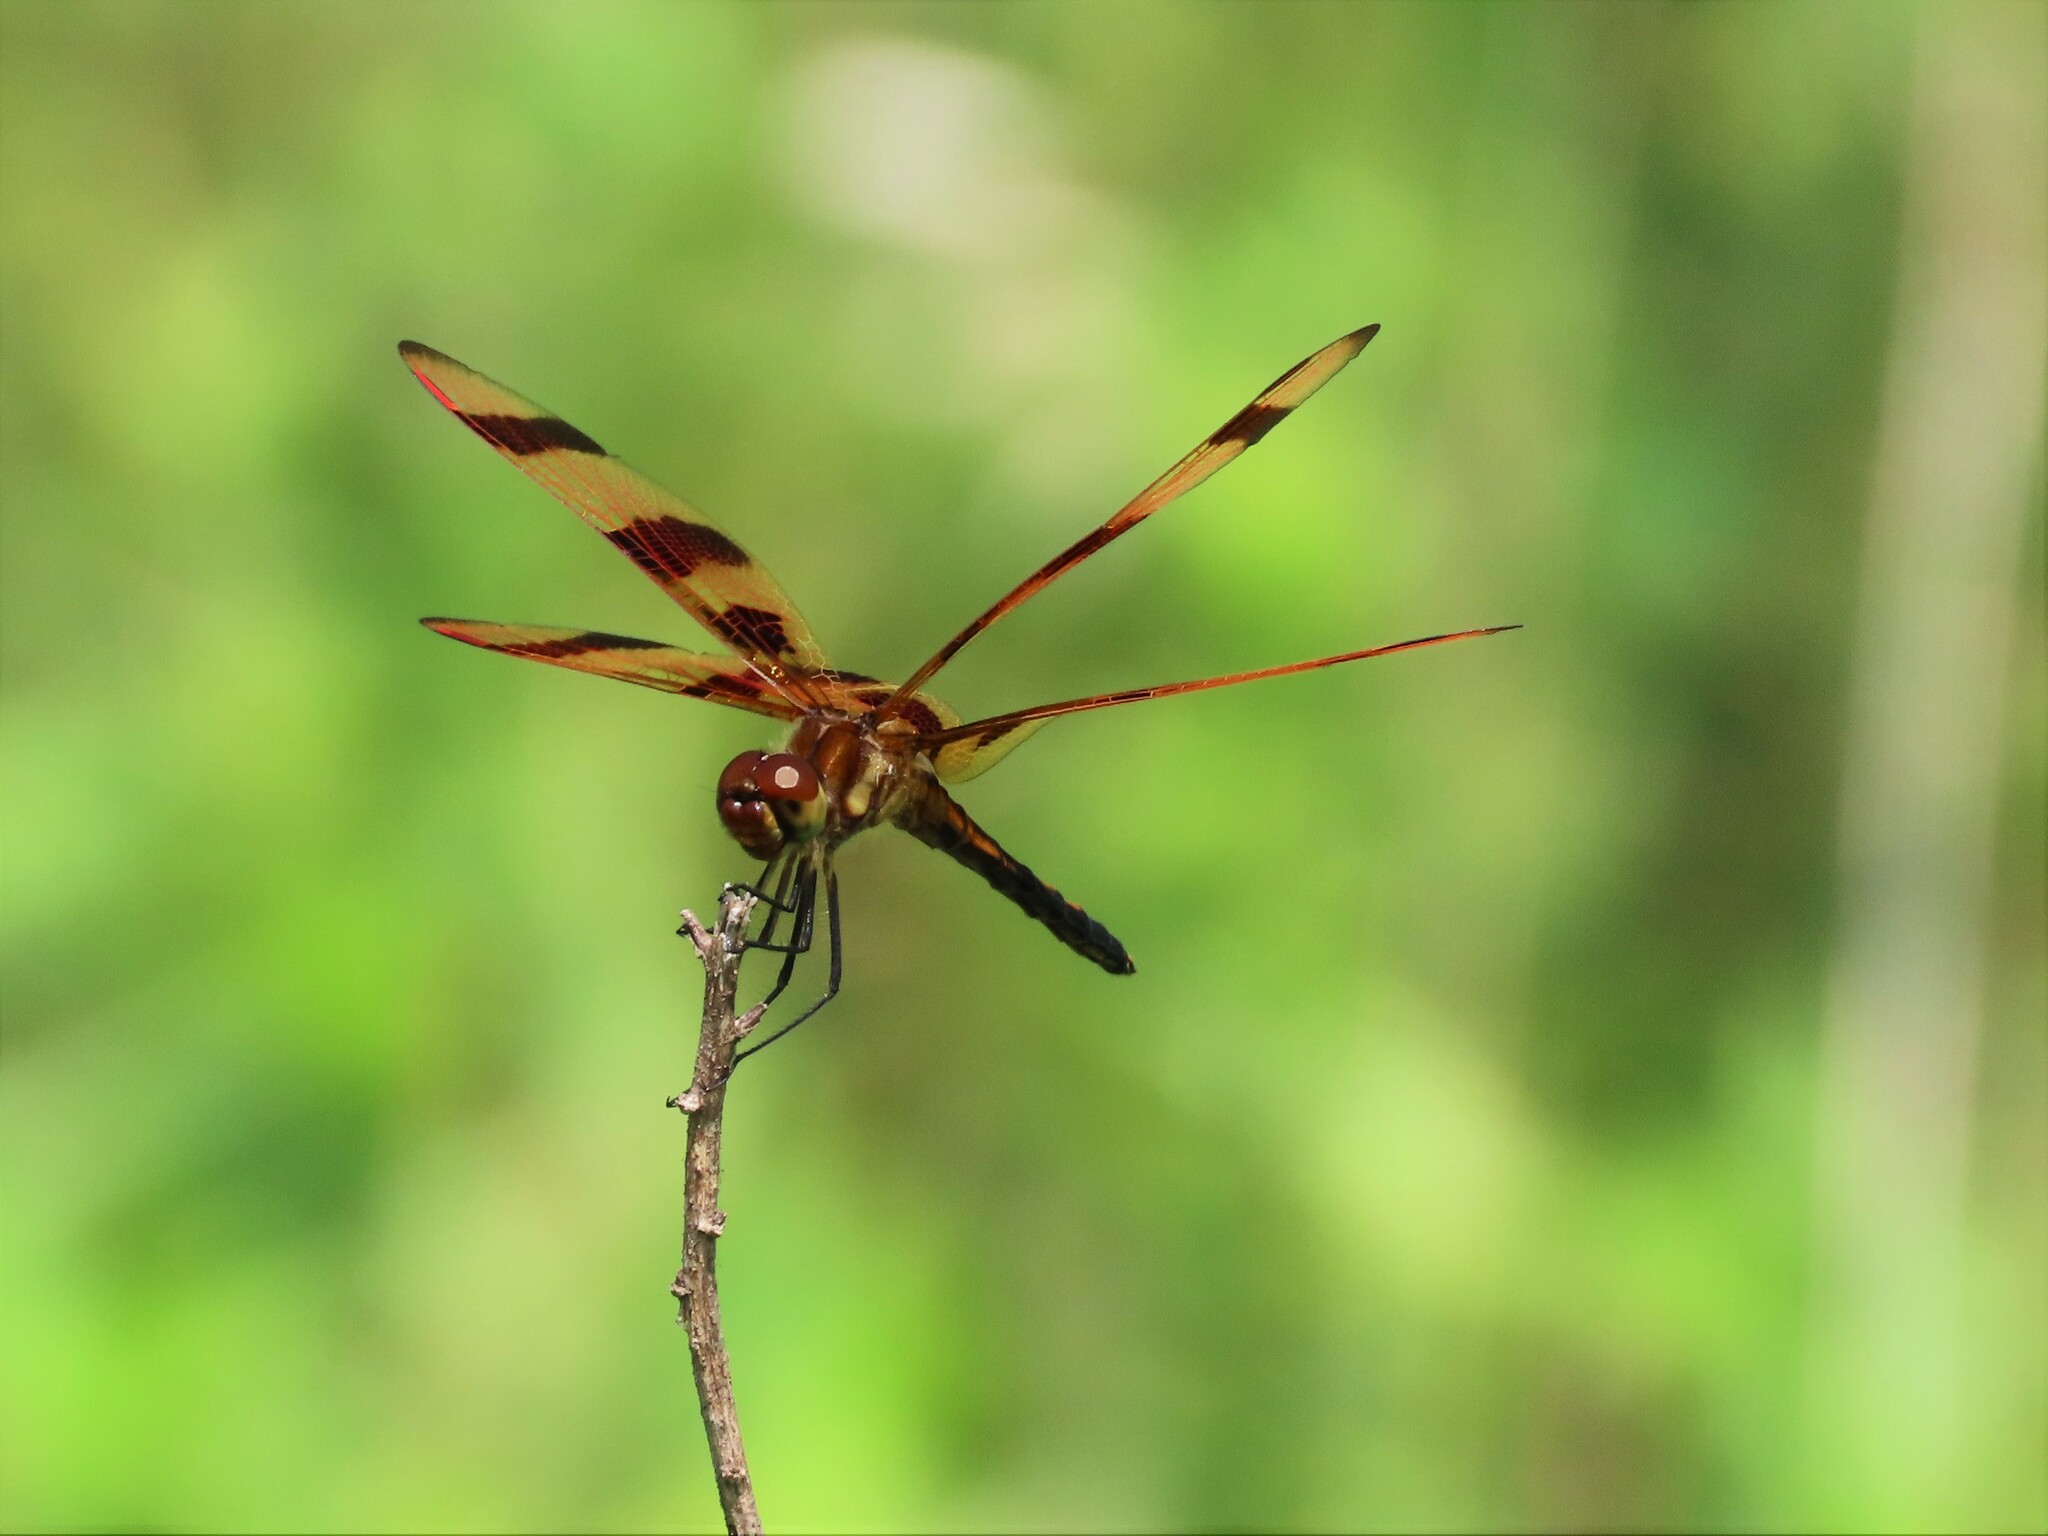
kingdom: Animalia
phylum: Arthropoda
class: Insecta
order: Odonata
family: Libellulidae
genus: Celithemis
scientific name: Celithemis eponina
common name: Halloween pennant
